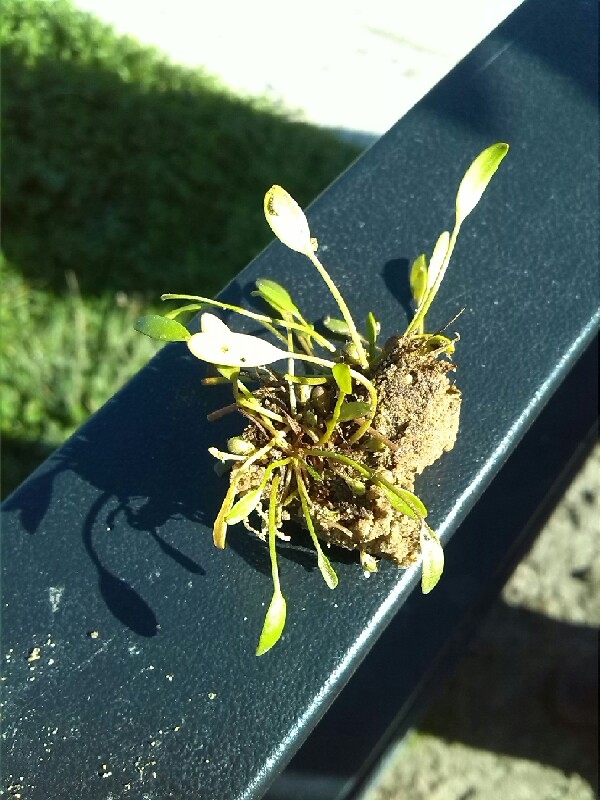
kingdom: Plantae
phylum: Tracheophyta
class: Magnoliopsida
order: Lamiales
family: Scrophulariaceae
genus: Limosella
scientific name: Limosella aquatica
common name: Mudwort
